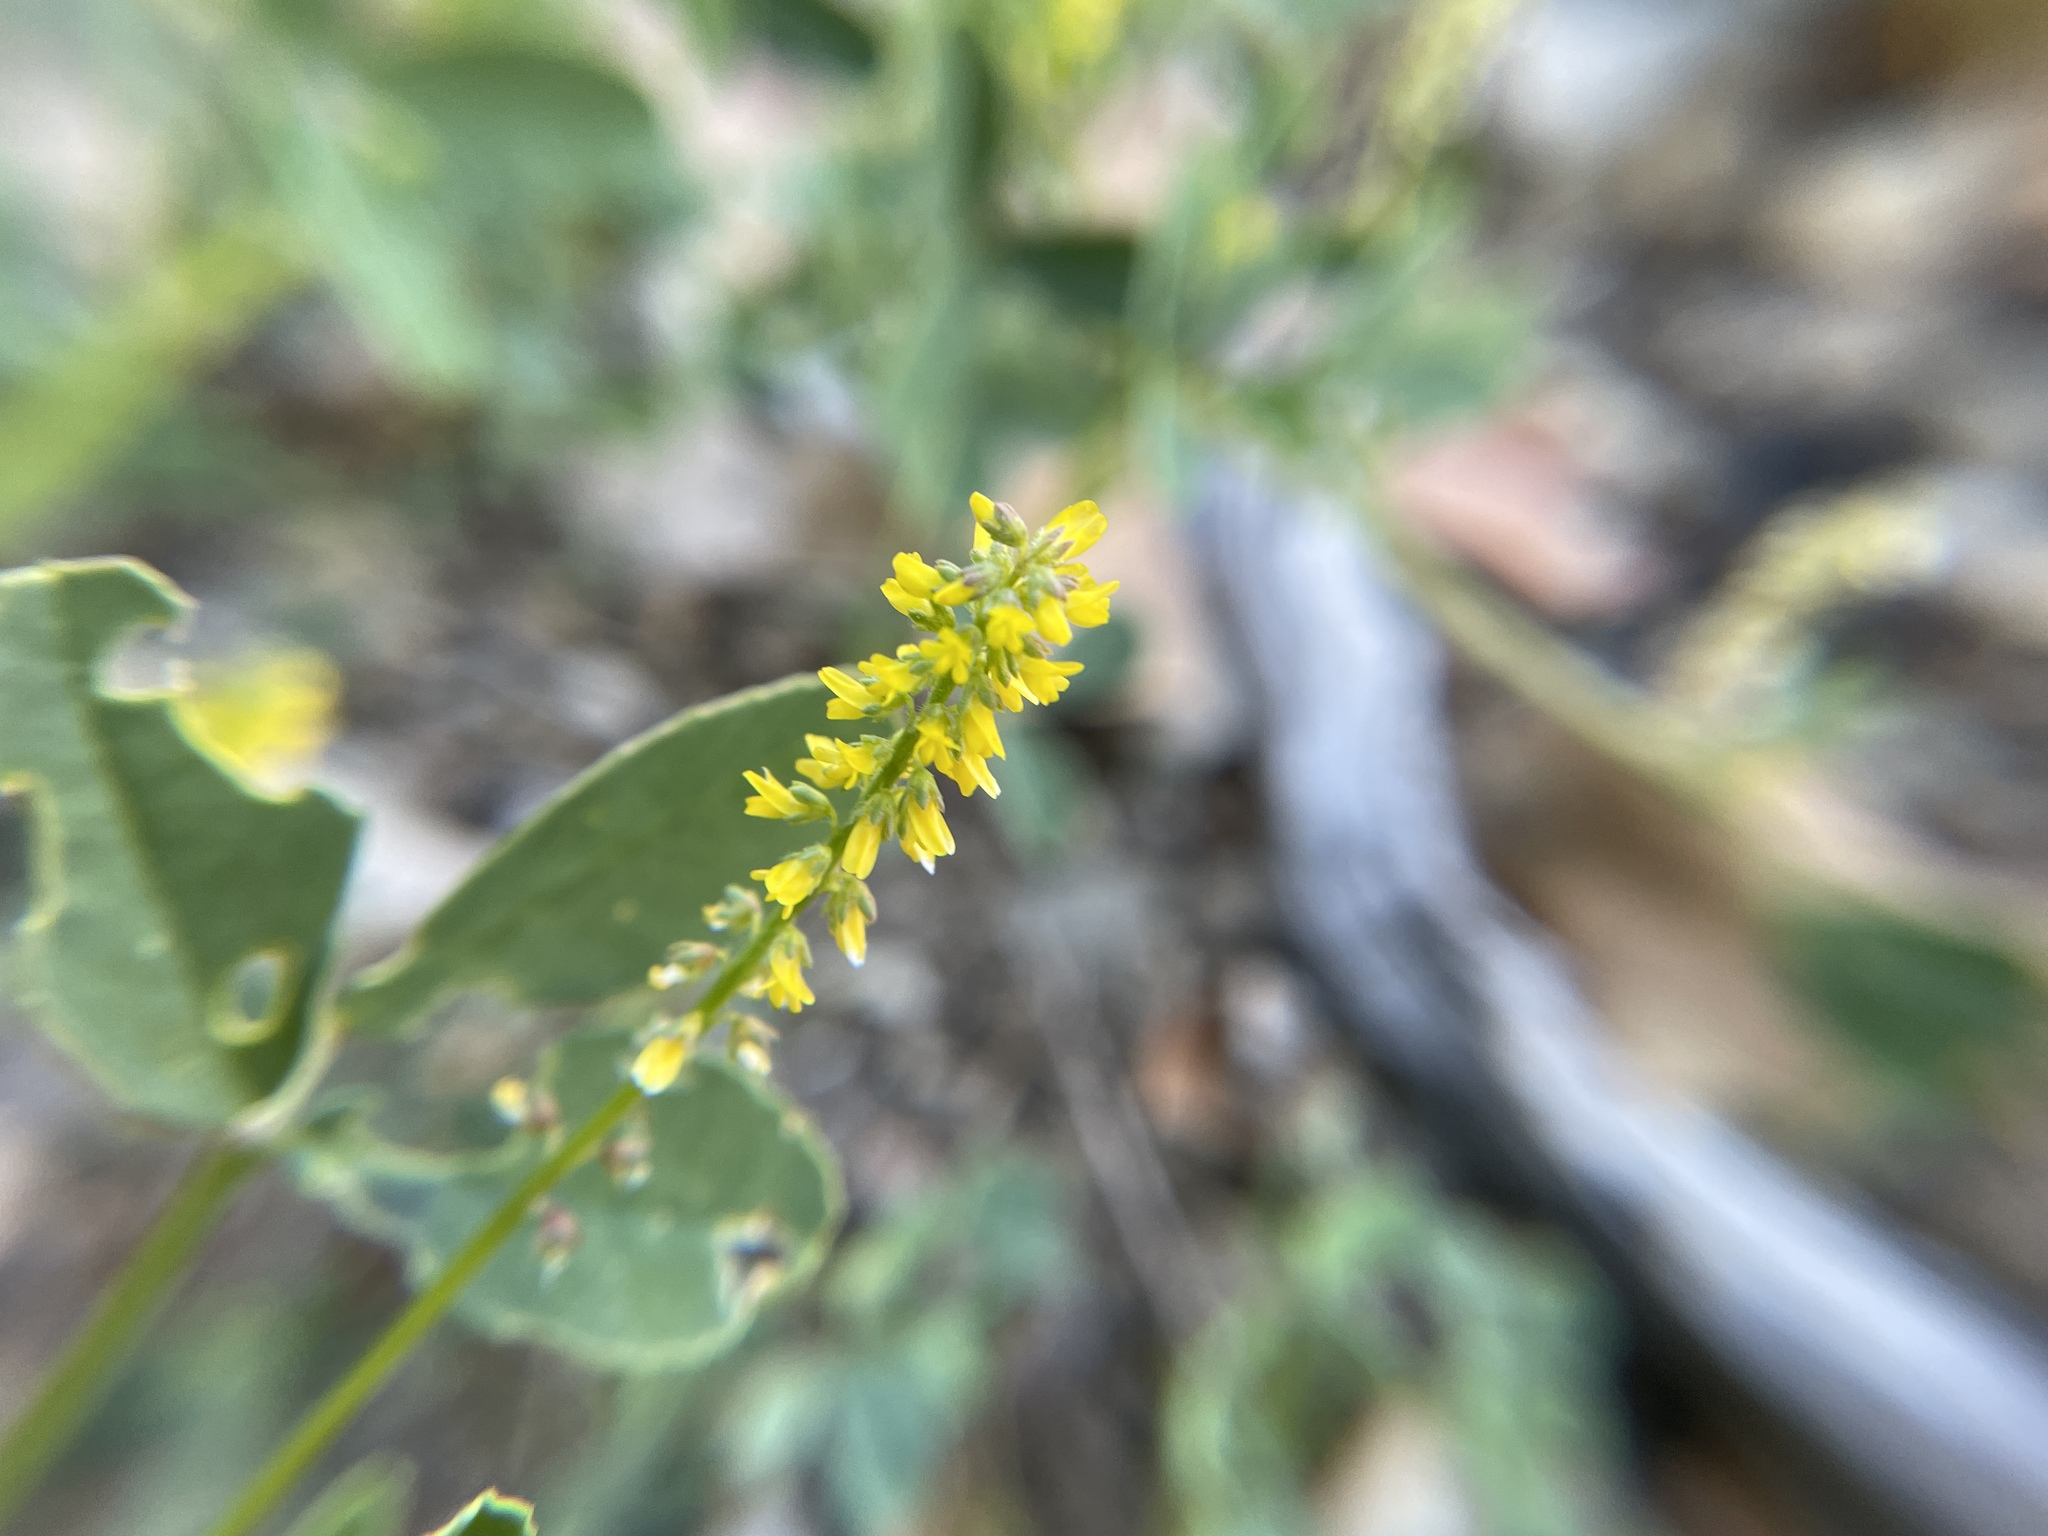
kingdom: Plantae
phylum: Tracheophyta
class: Magnoliopsida
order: Fabales
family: Fabaceae
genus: Melilotus
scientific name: Melilotus indicus
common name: Small melilot
